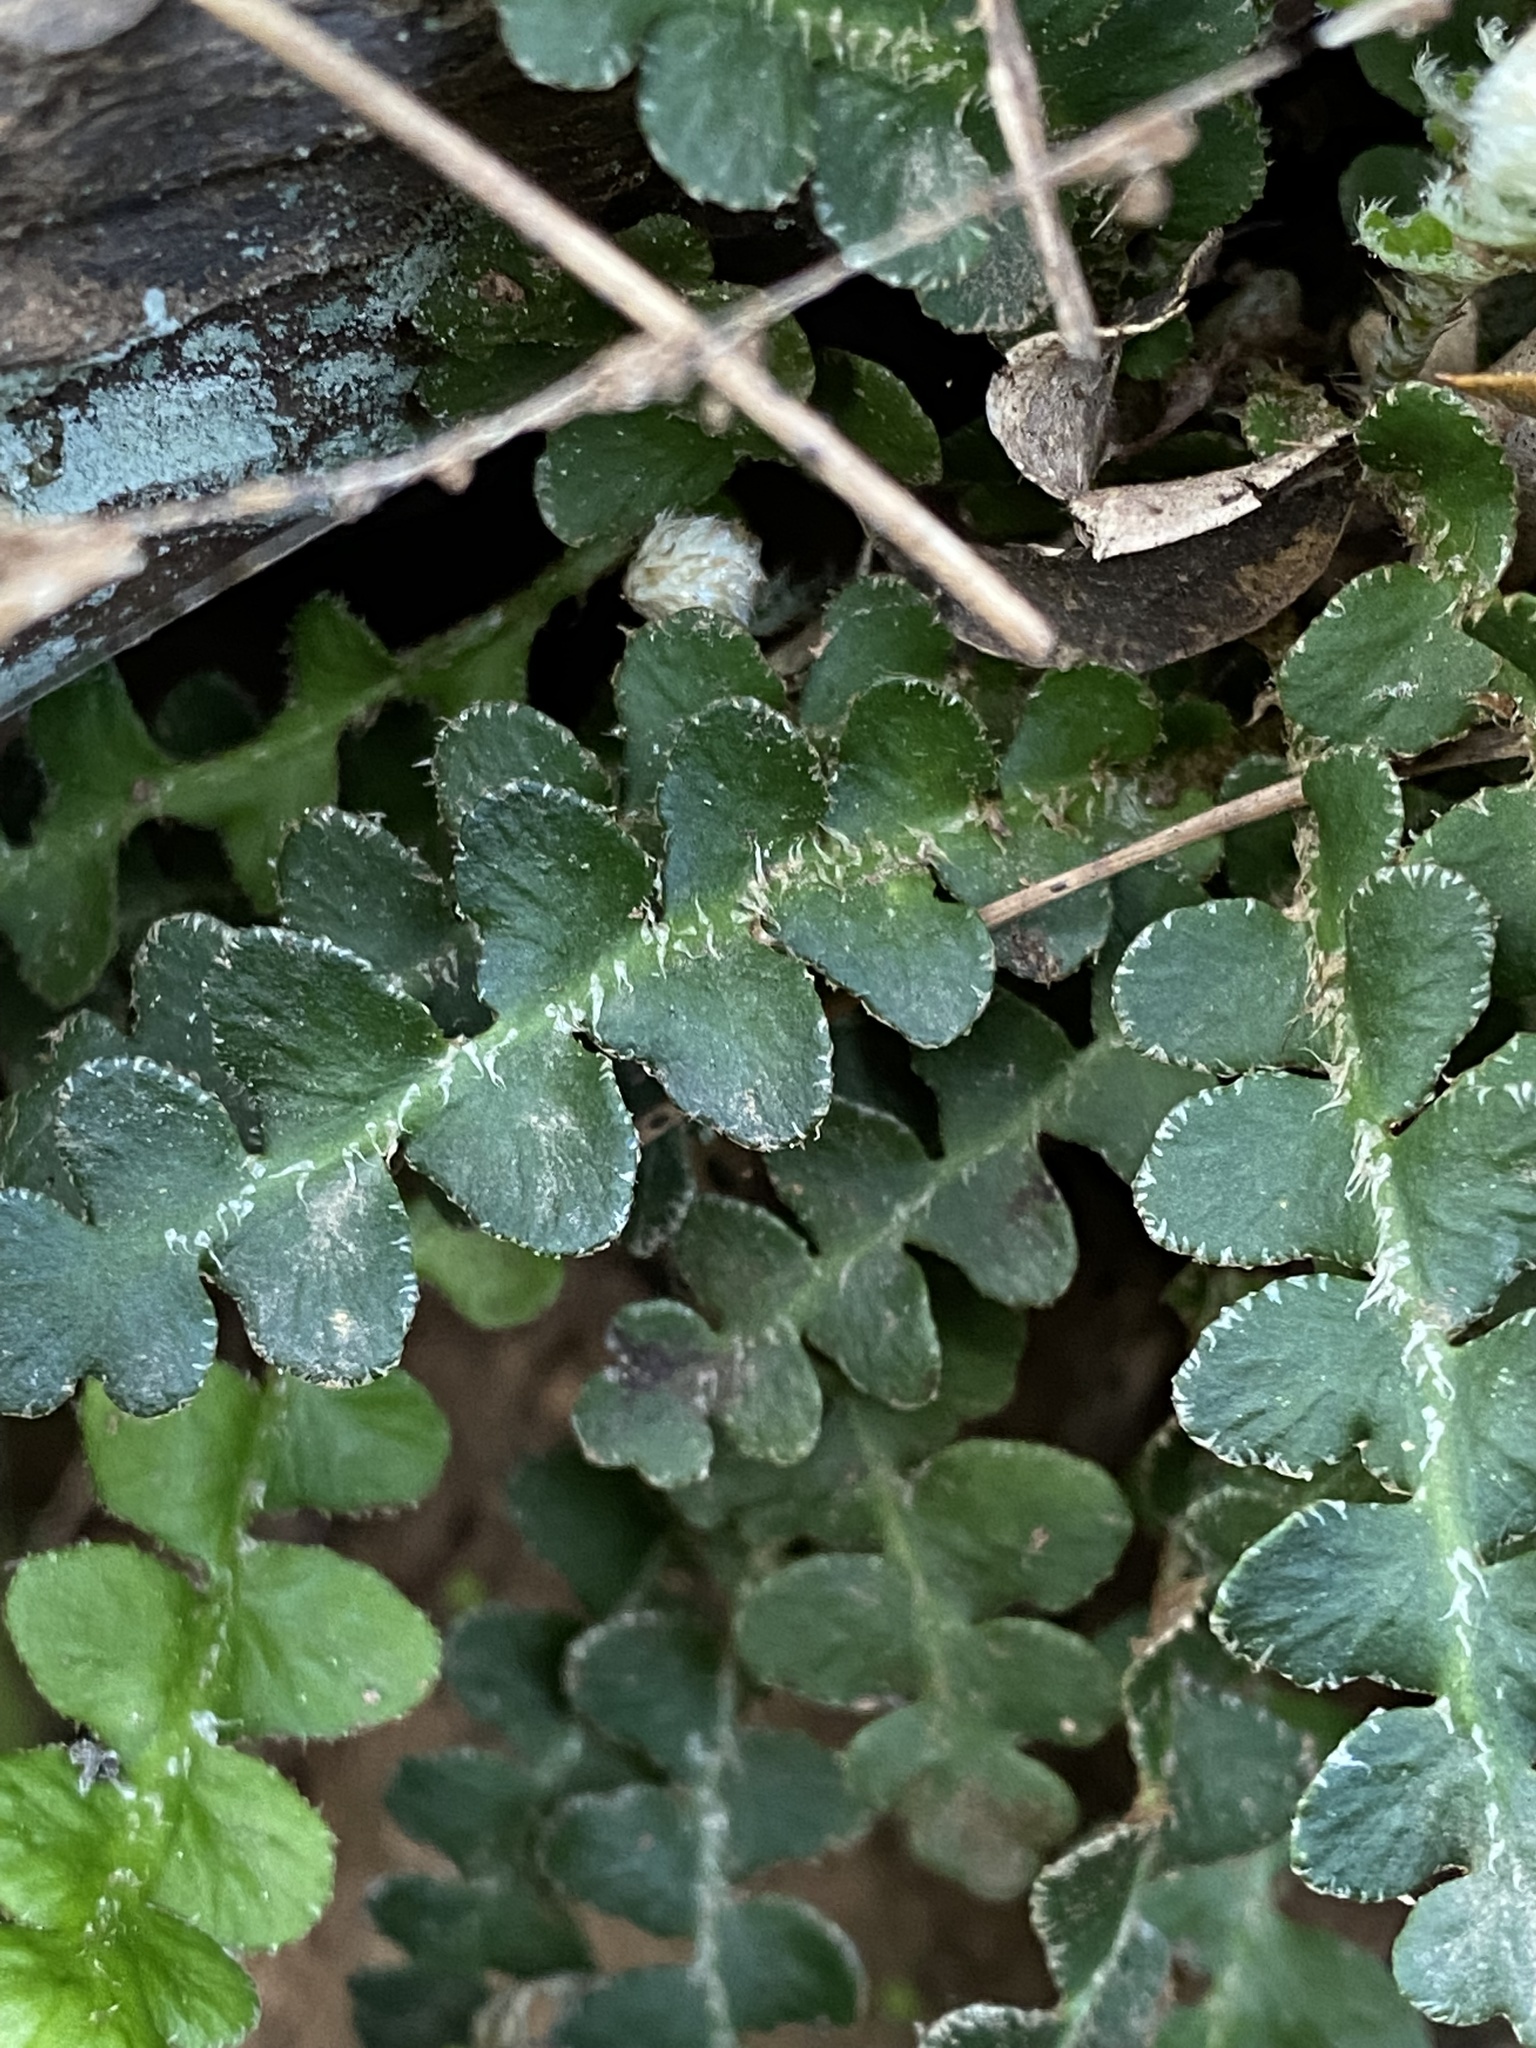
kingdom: Plantae
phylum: Tracheophyta
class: Polypodiopsida
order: Polypodiales
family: Aspleniaceae
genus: Asplenium
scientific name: Asplenium ceterach
